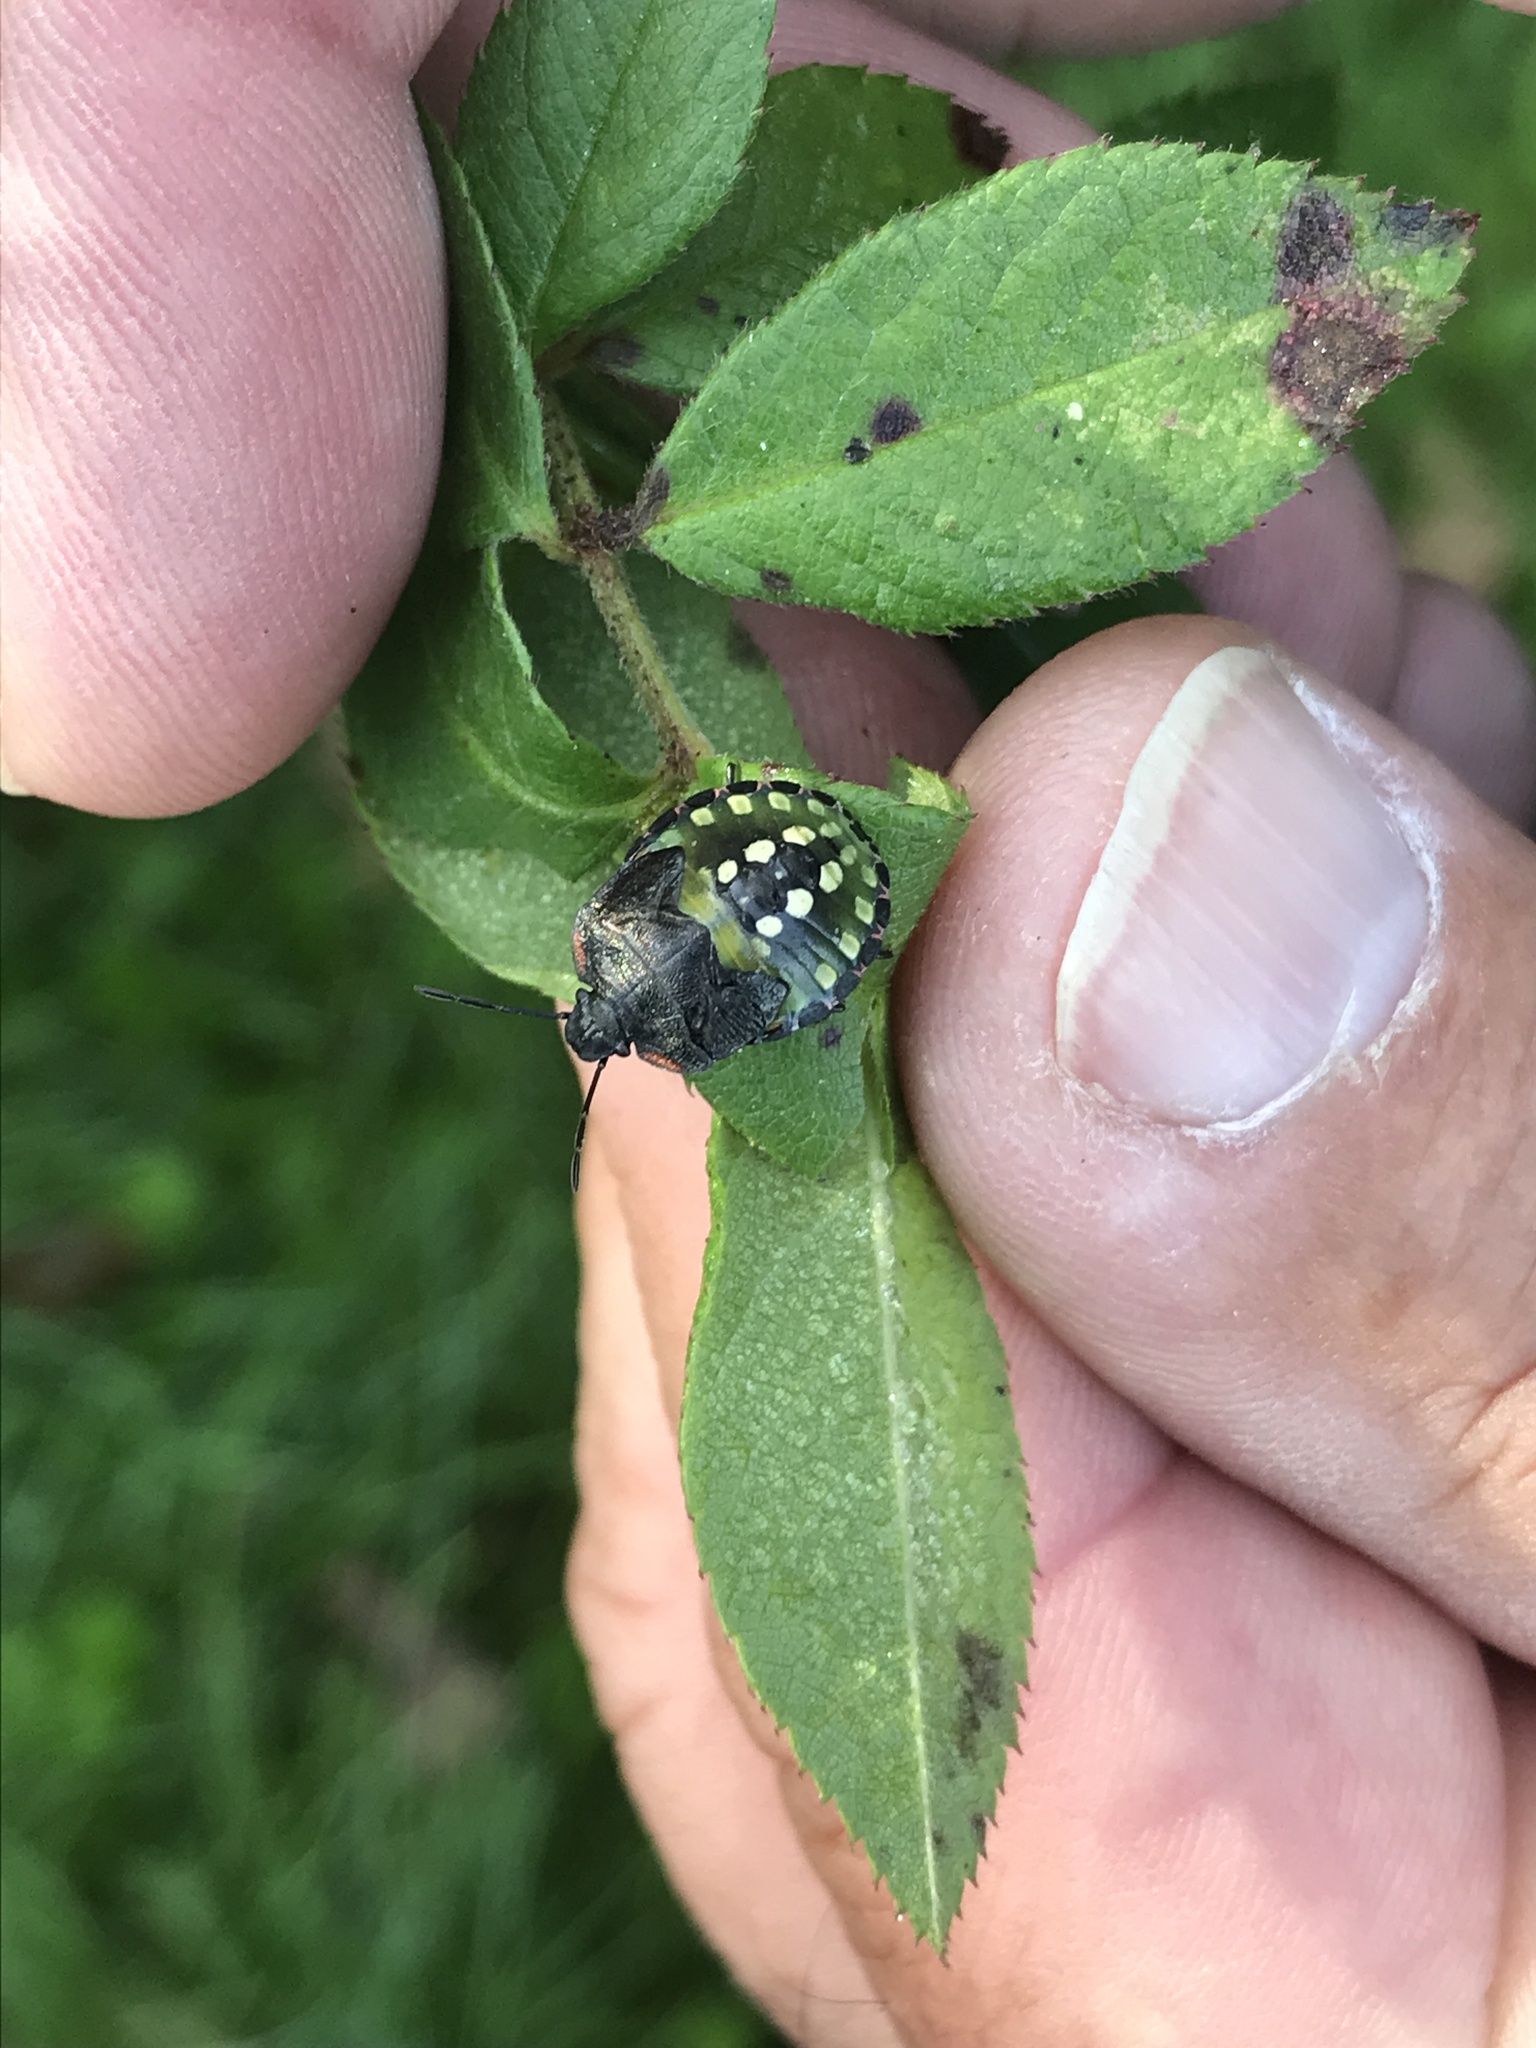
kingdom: Animalia
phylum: Arthropoda
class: Insecta
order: Hemiptera
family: Pentatomidae
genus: Nezara
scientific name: Nezara viridula
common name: Southern green stink bug
